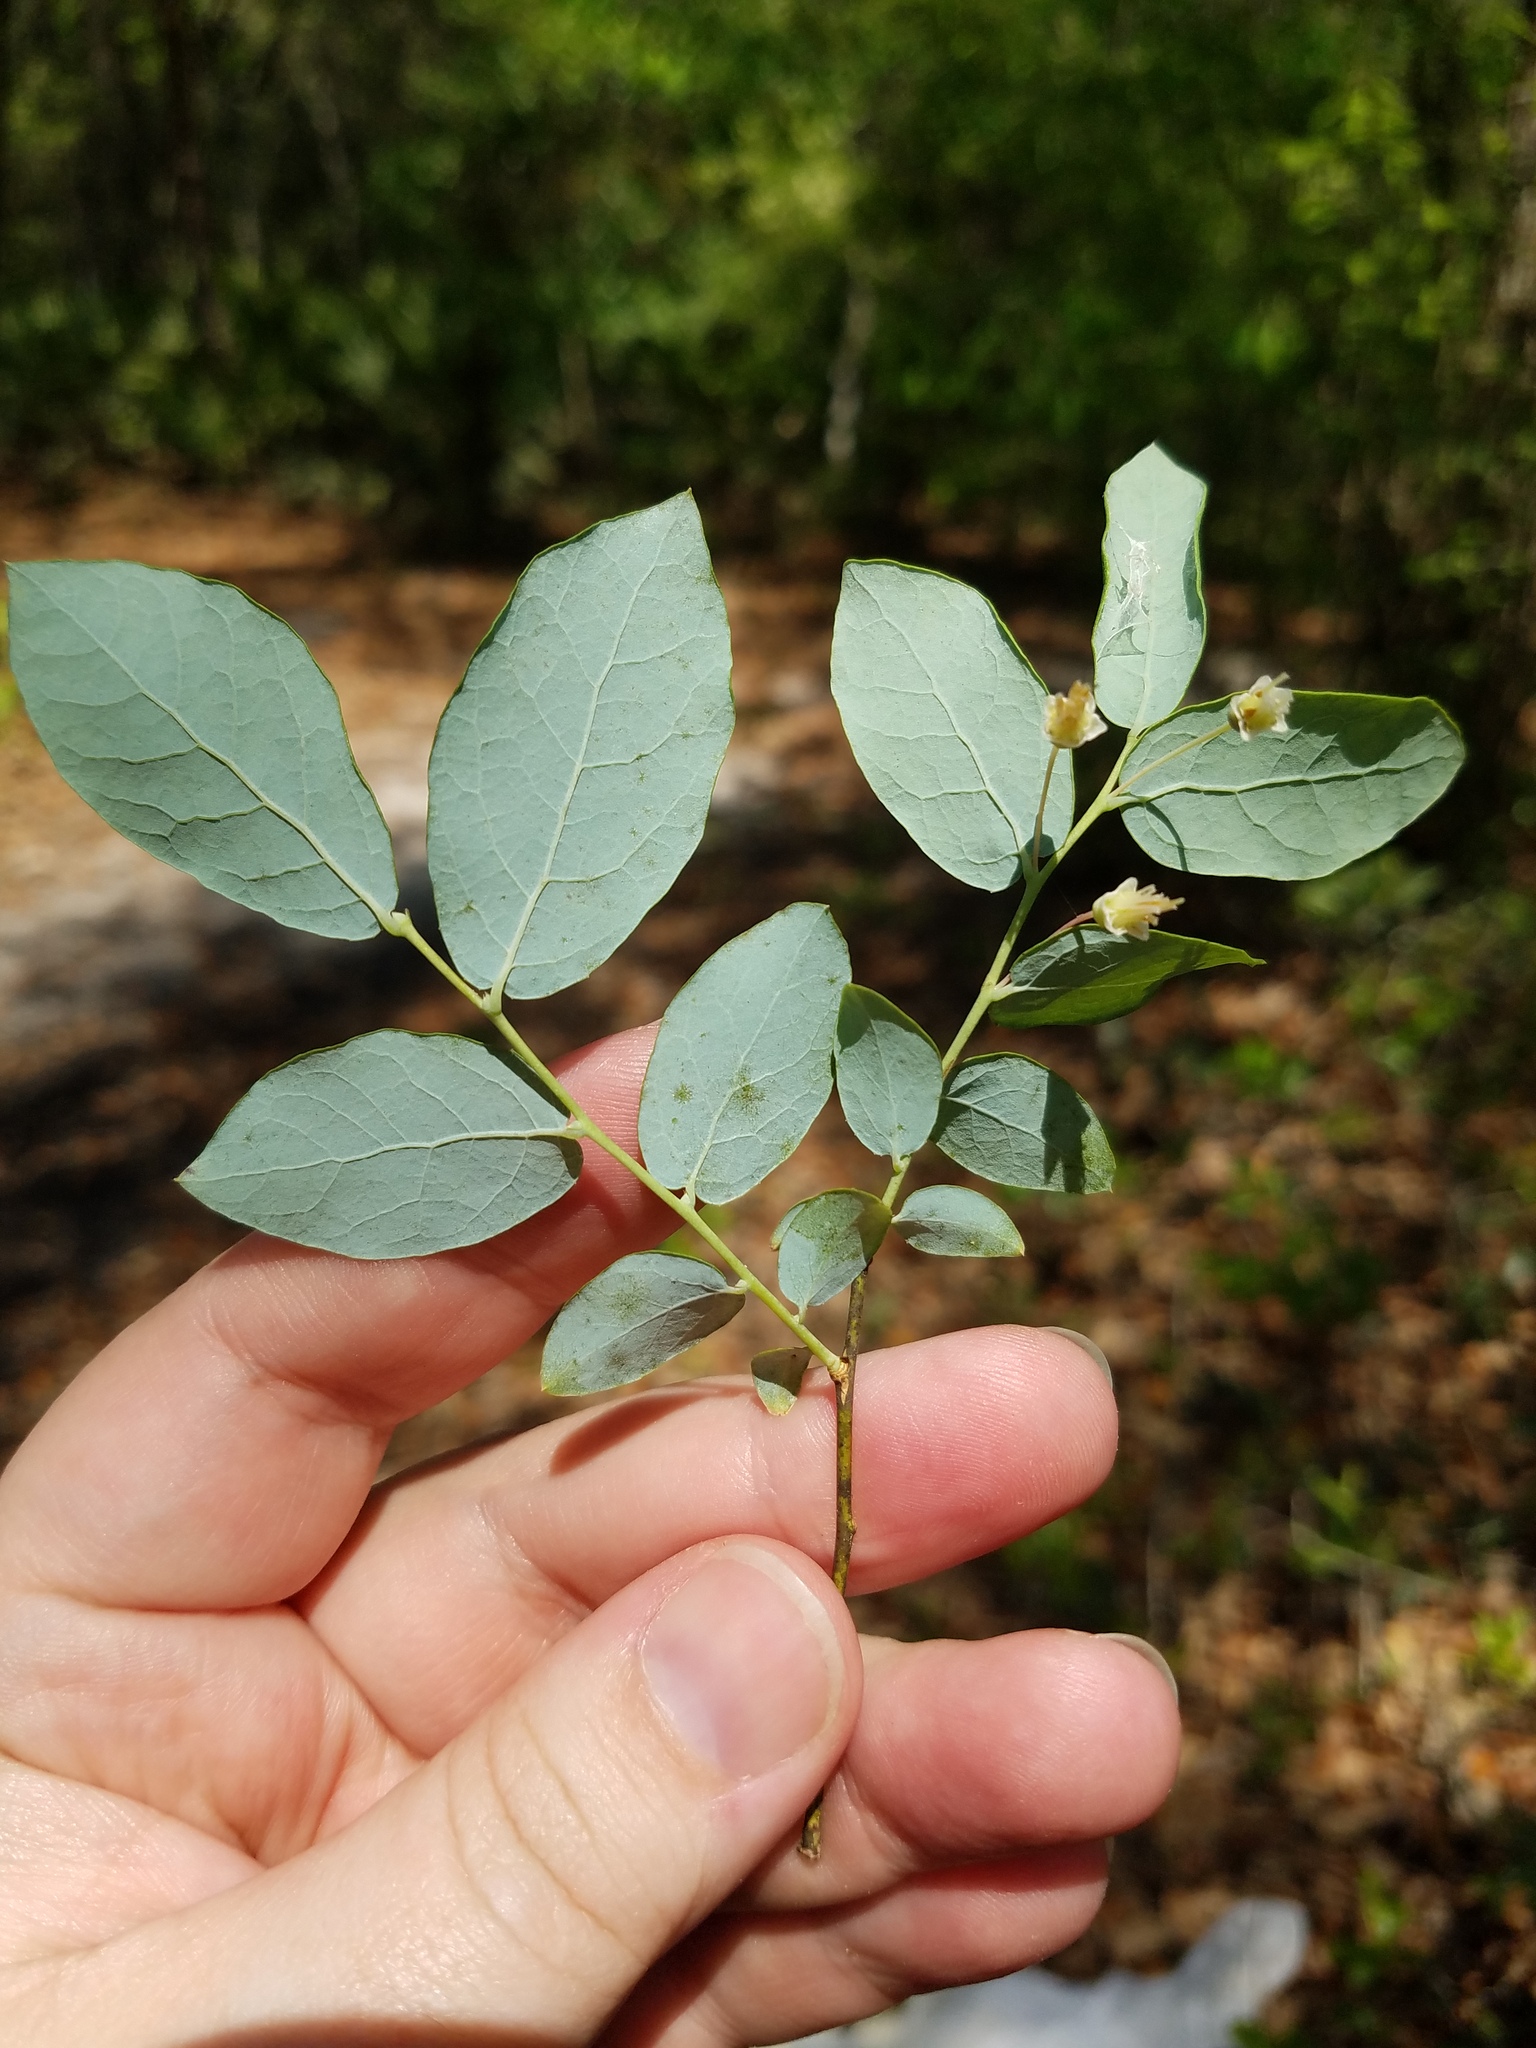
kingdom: Plantae
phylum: Tracheophyta
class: Magnoliopsida
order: Ericales
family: Ericaceae
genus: Vaccinium
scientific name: Vaccinium stamineum
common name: Deerberry
